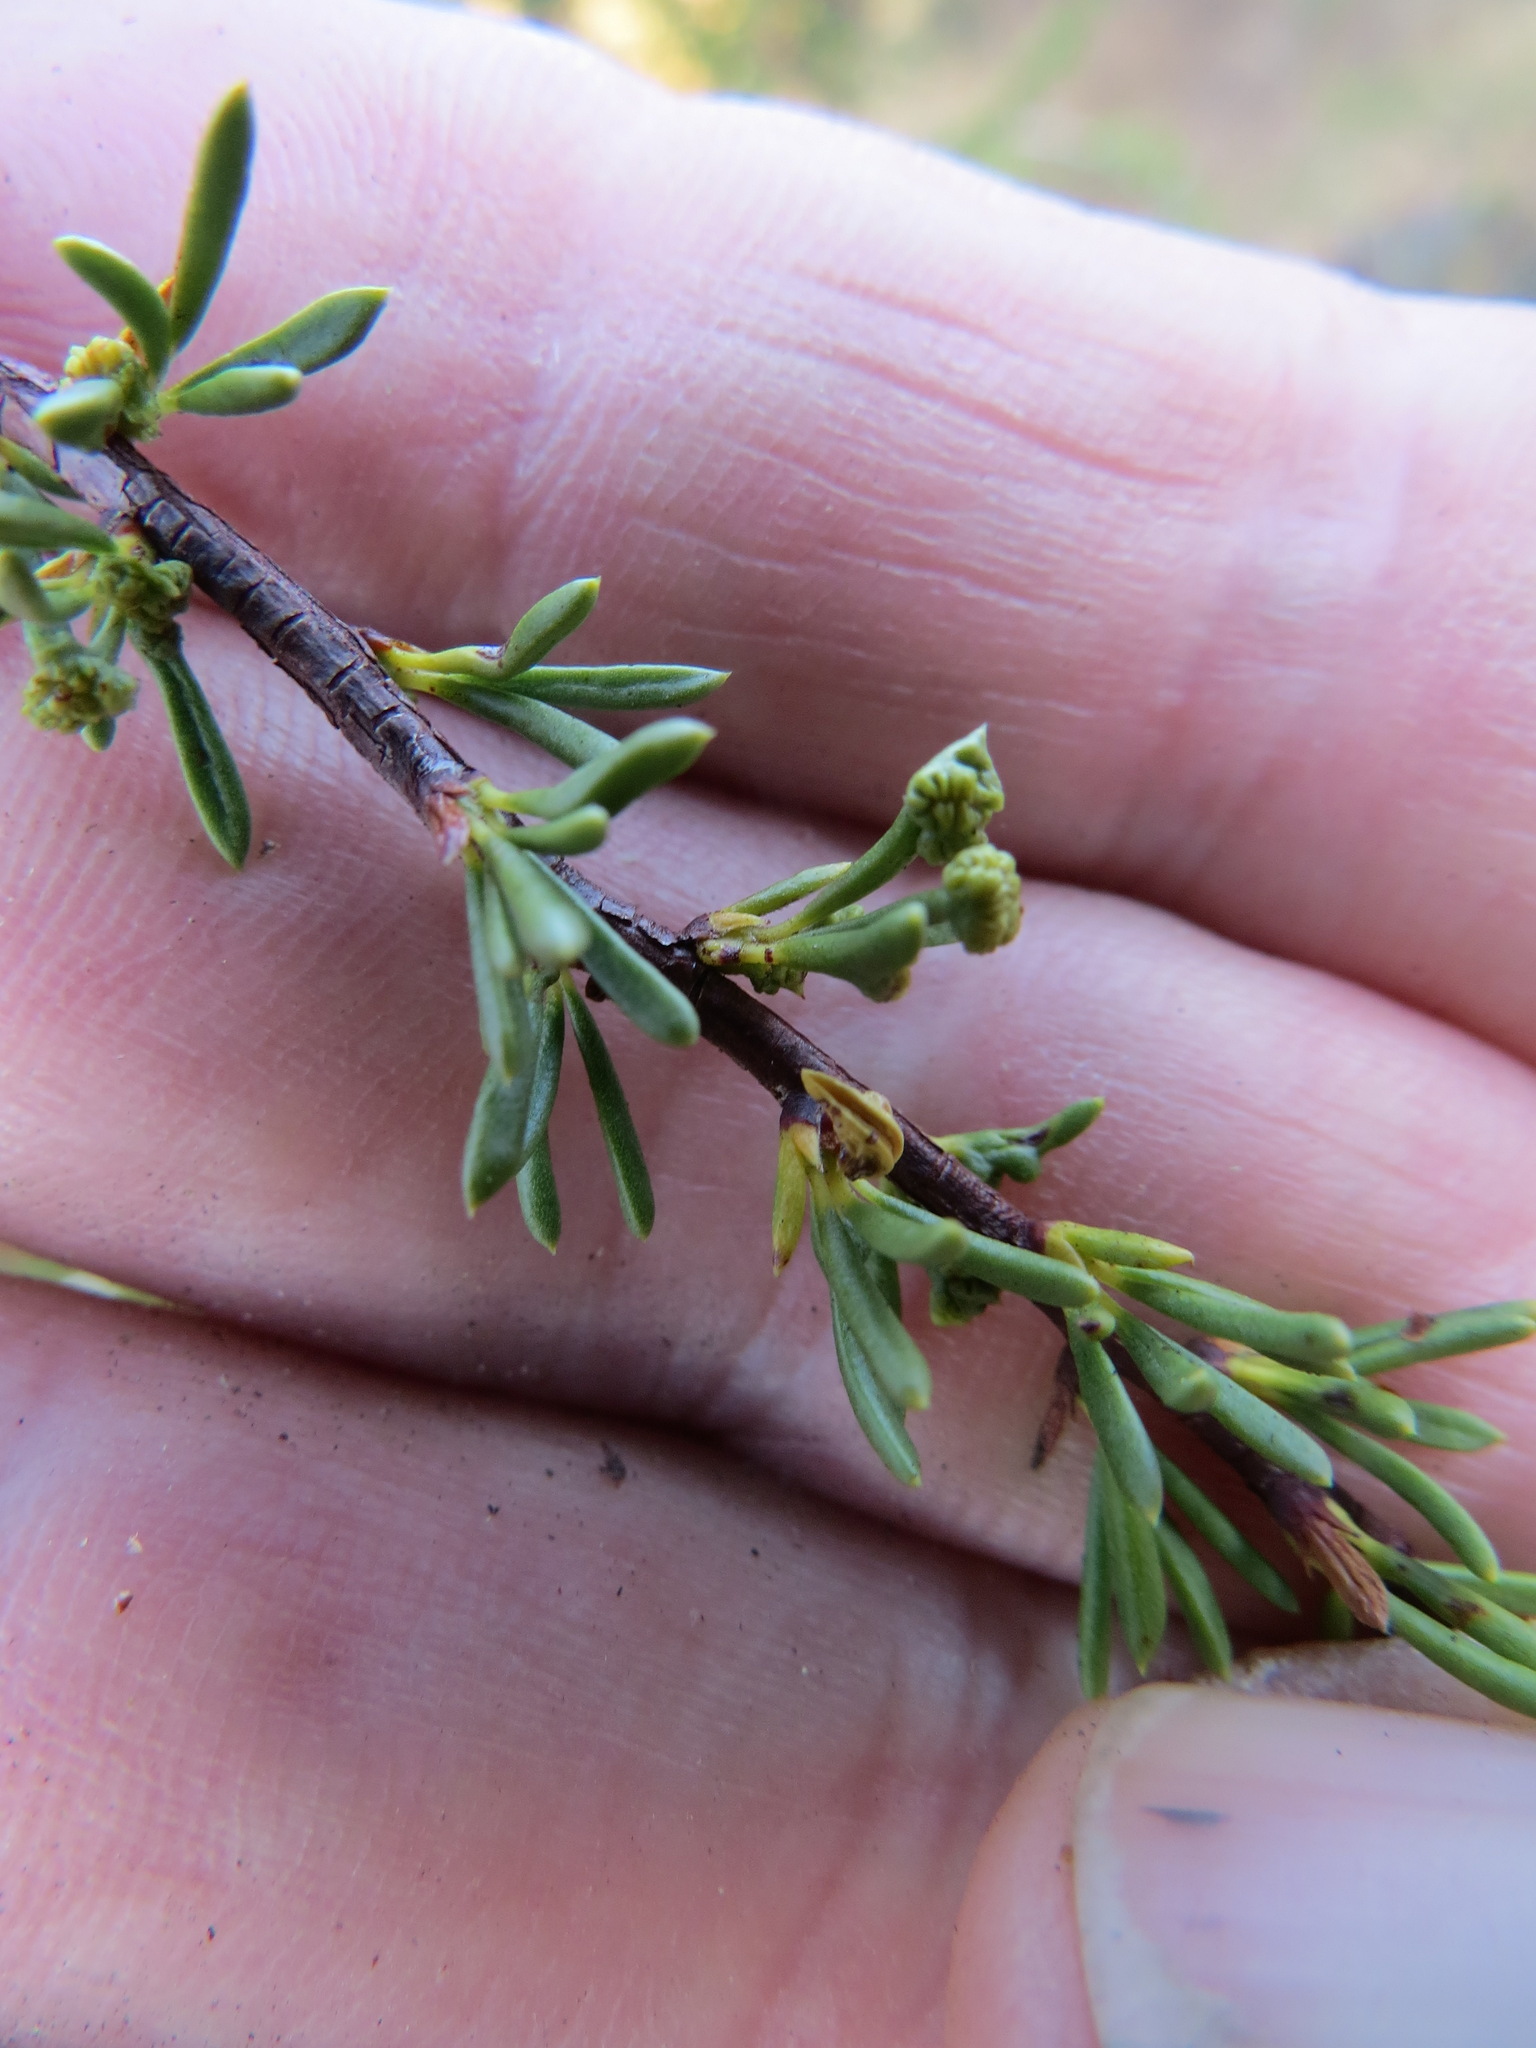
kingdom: Animalia
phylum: Arthropoda
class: Arachnida
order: Trombidiformes
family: Eriophyidae
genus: Eriophyes
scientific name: Eriophyes
